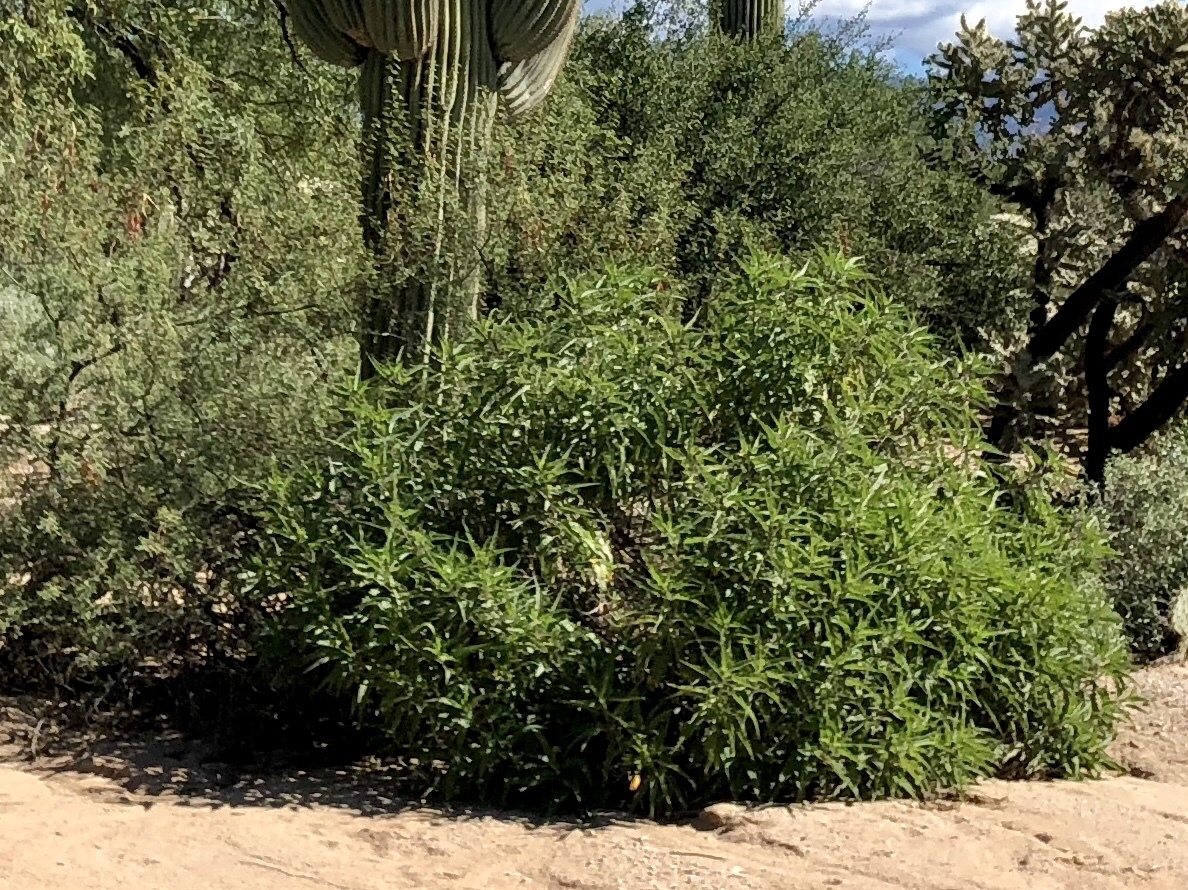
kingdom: Plantae
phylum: Tracheophyta
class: Magnoliopsida
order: Asterales
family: Asteraceae
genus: Ambrosia
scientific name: Ambrosia ambrosioides
